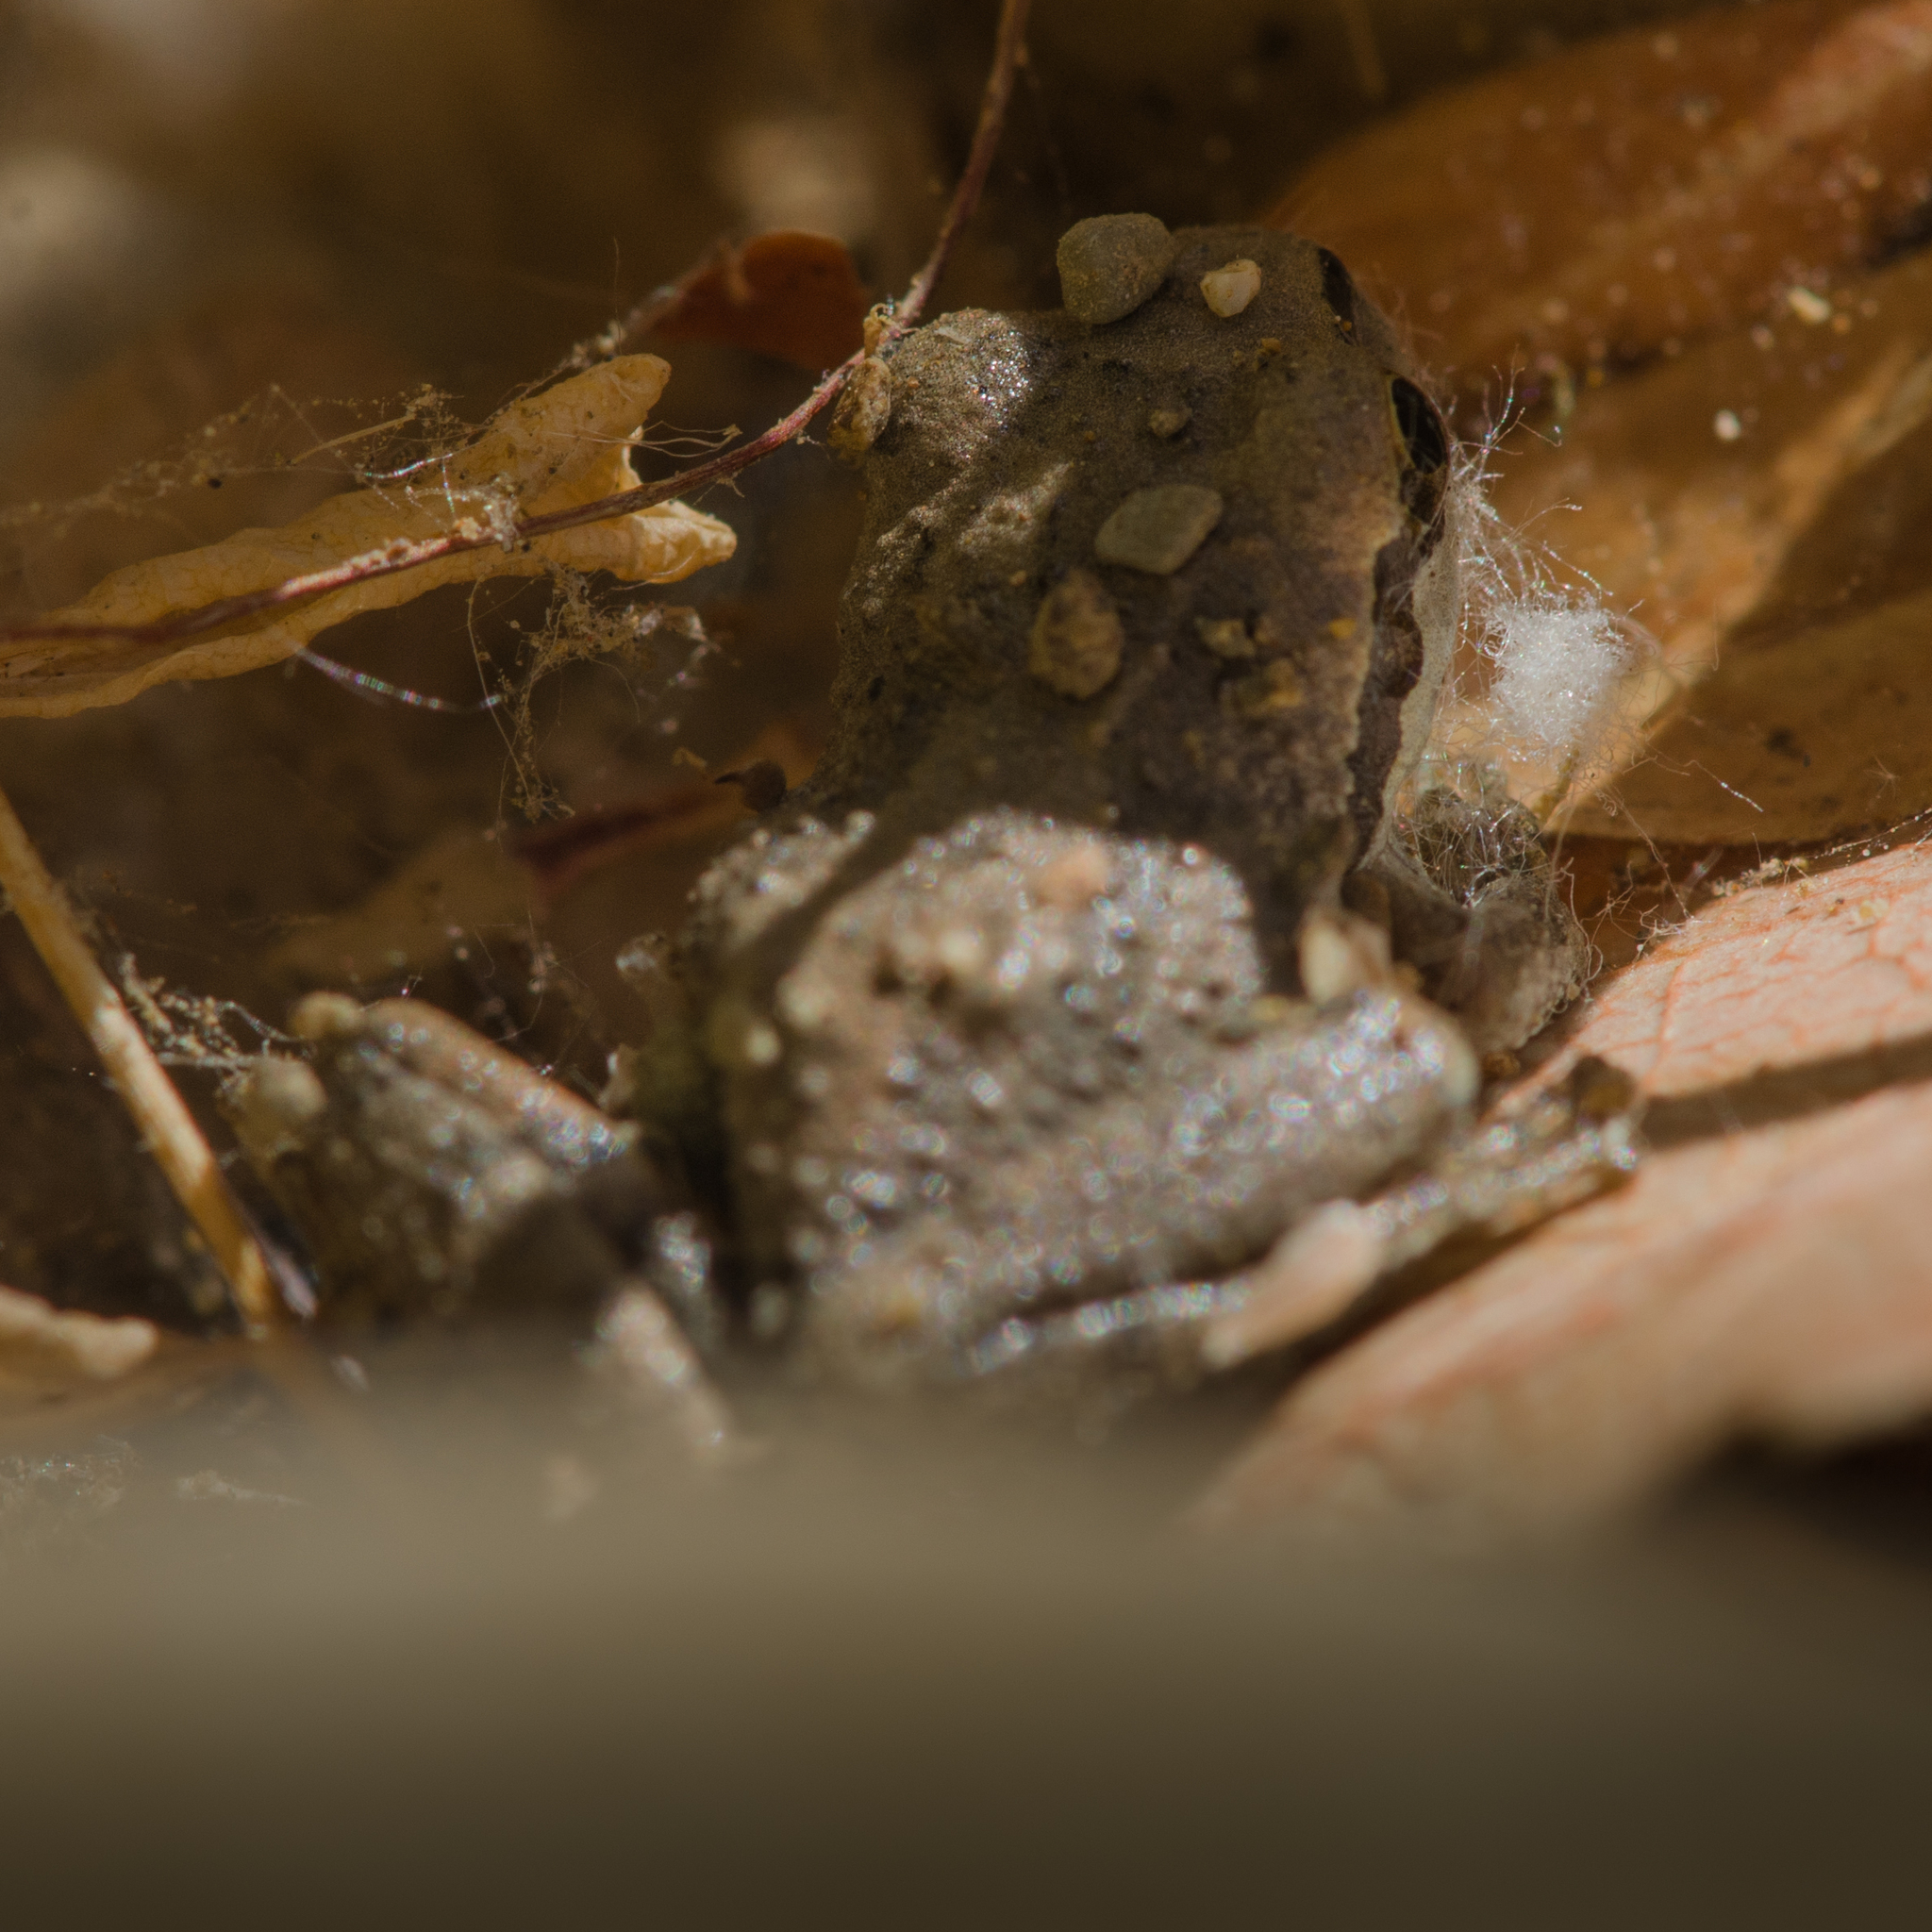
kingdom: Animalia
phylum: Chordata
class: Amphibia
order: Anura
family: Hylidae
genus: Pseudacris
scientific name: Pseudacris regilla
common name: Pacific chorus frog
